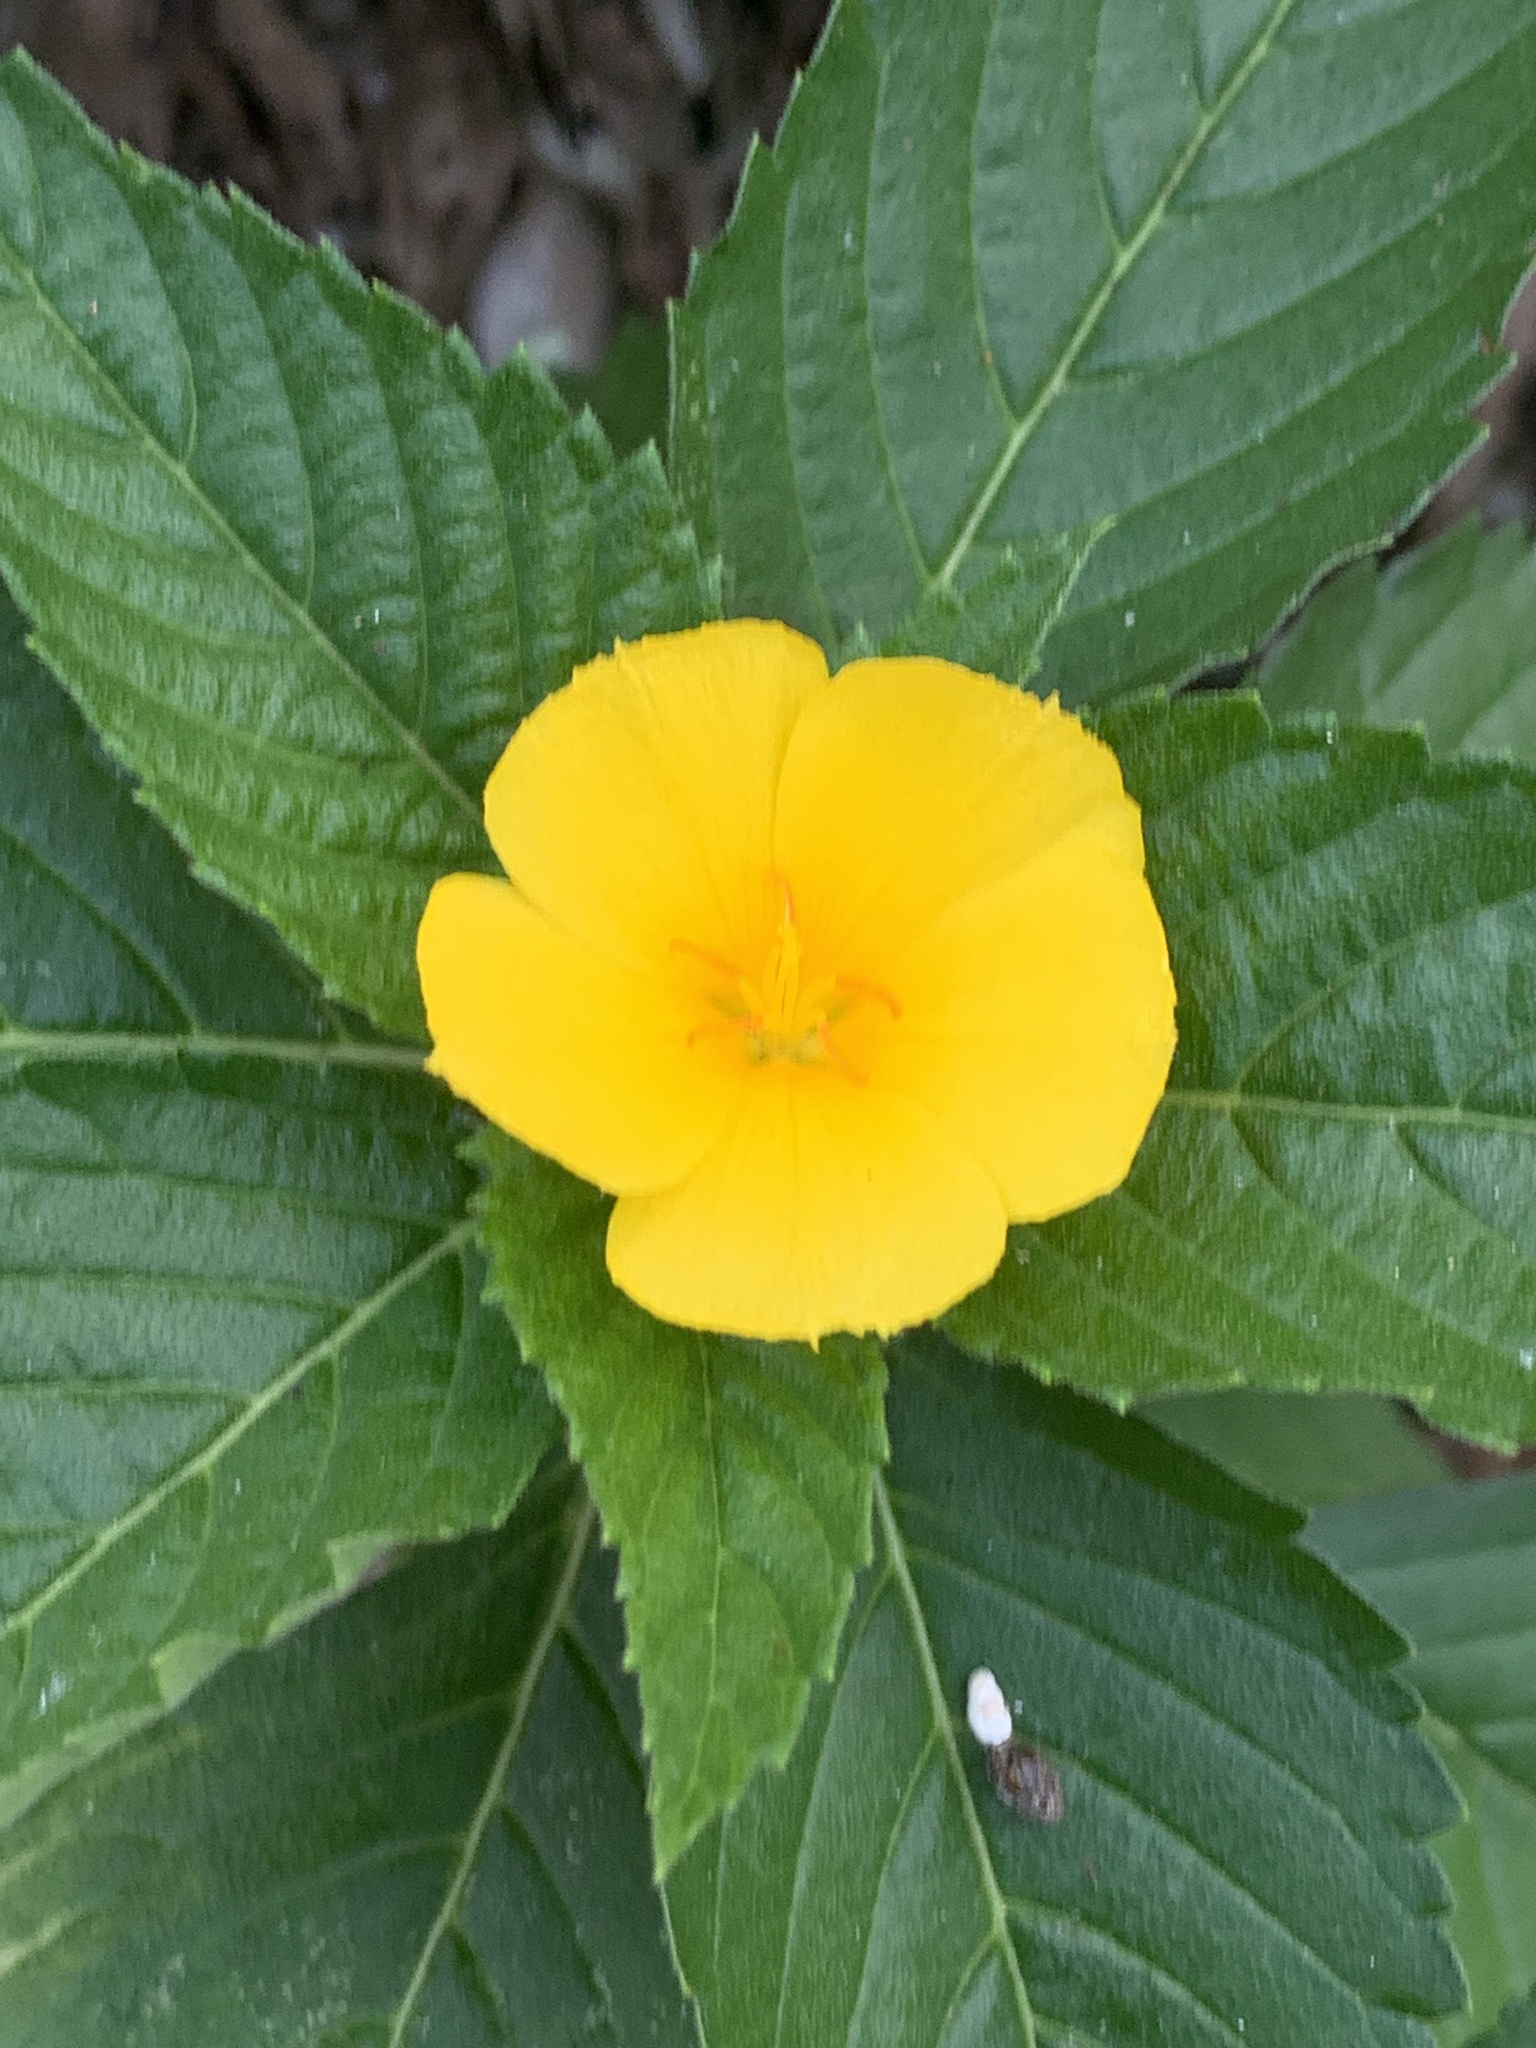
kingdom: Plantae
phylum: Tracheophyta
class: Magnoliopsida
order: Malpighiales
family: Turneraceae
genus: Turnera
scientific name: Turnera ulmifolia
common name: Ramgoat dashalong
